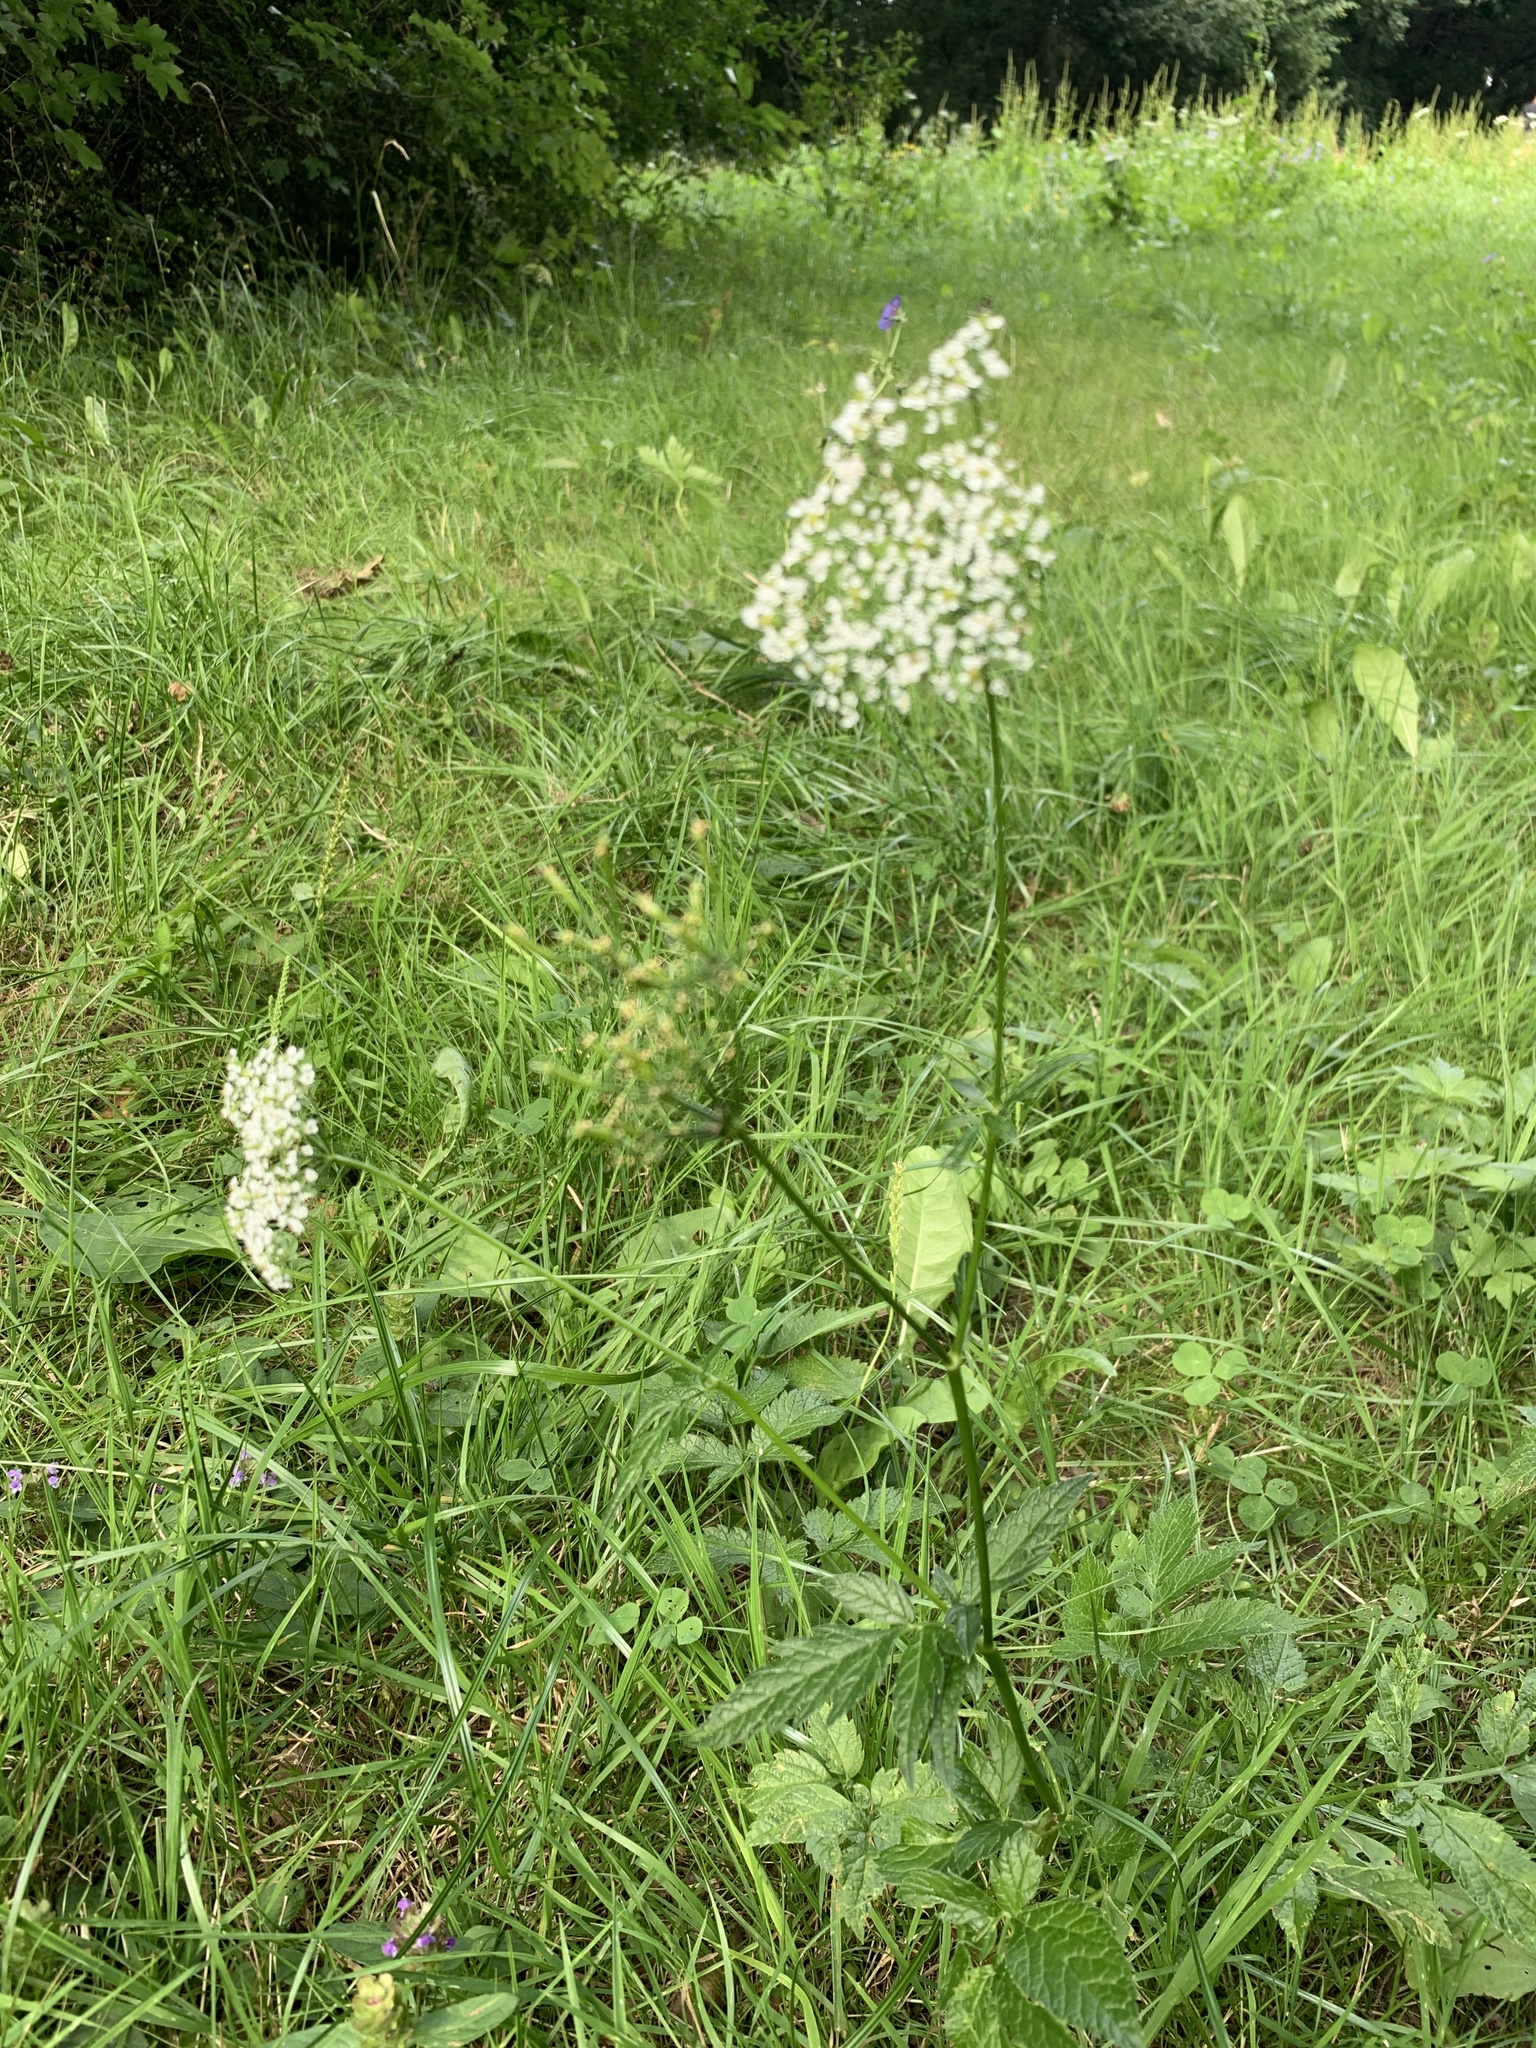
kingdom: Plantae
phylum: Tracheophyta
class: Magnoliopsida
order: Apiales
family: Apiaceae
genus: Chaerophyllum
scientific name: Chaerophyllum aromaticum
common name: Broadleaf chervil
